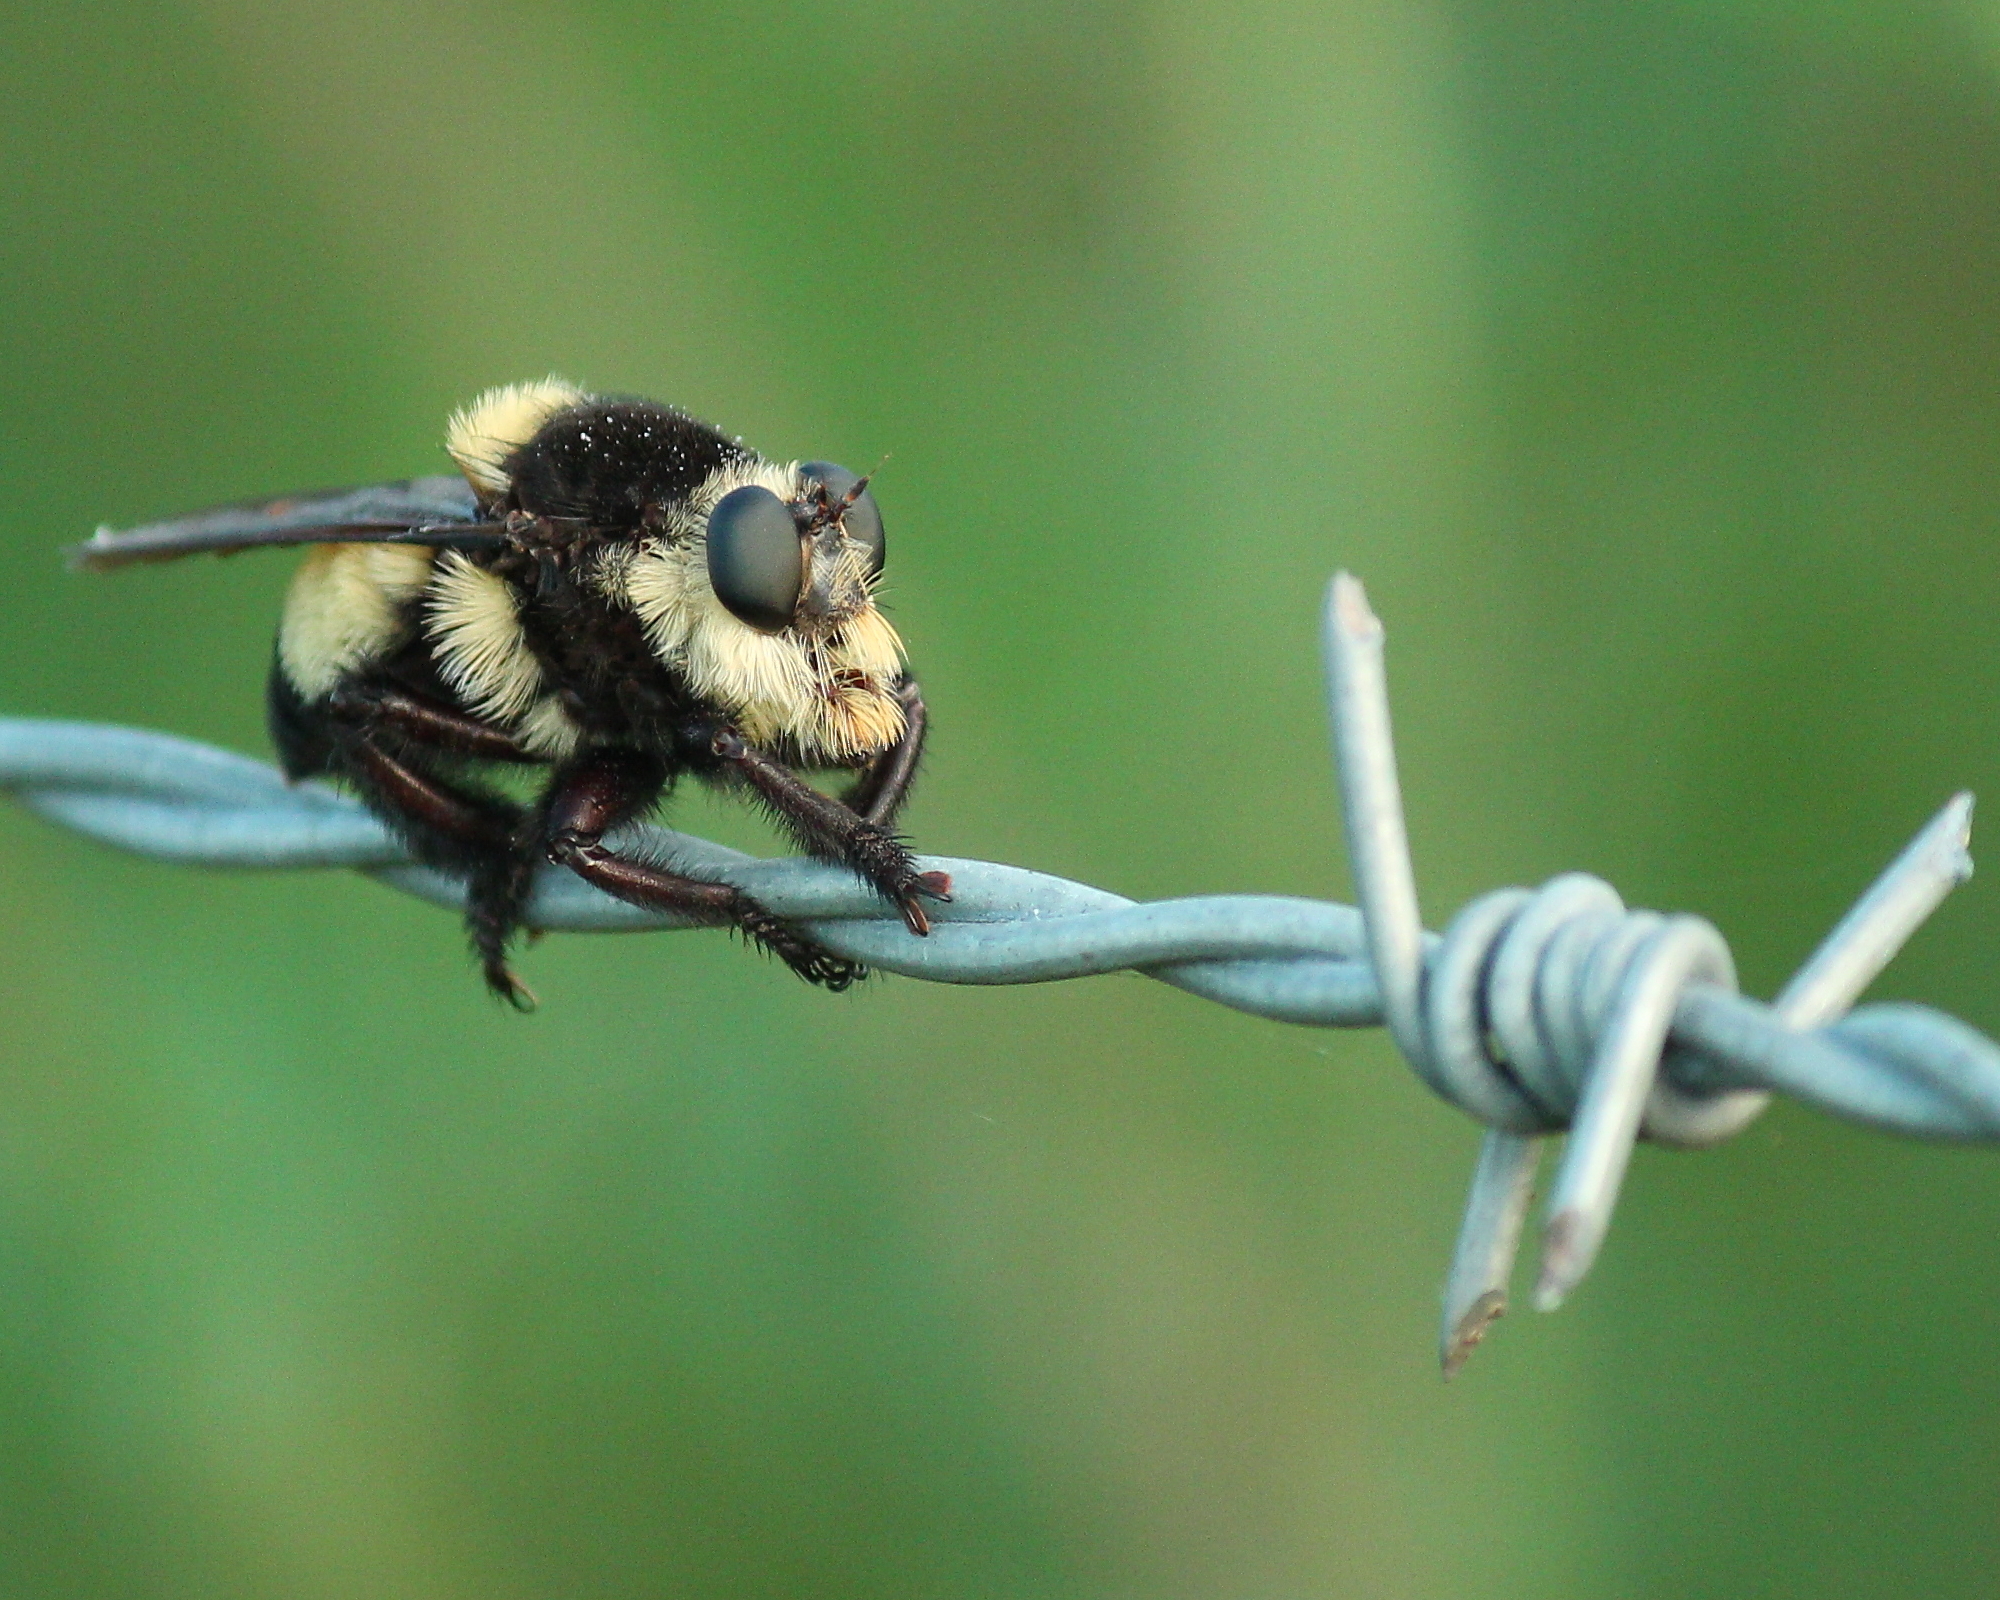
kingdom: Animalia
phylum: Arthropoda
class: Insecta
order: Diptera
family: Asilidae
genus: Mallophora
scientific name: Mallophora orcina
